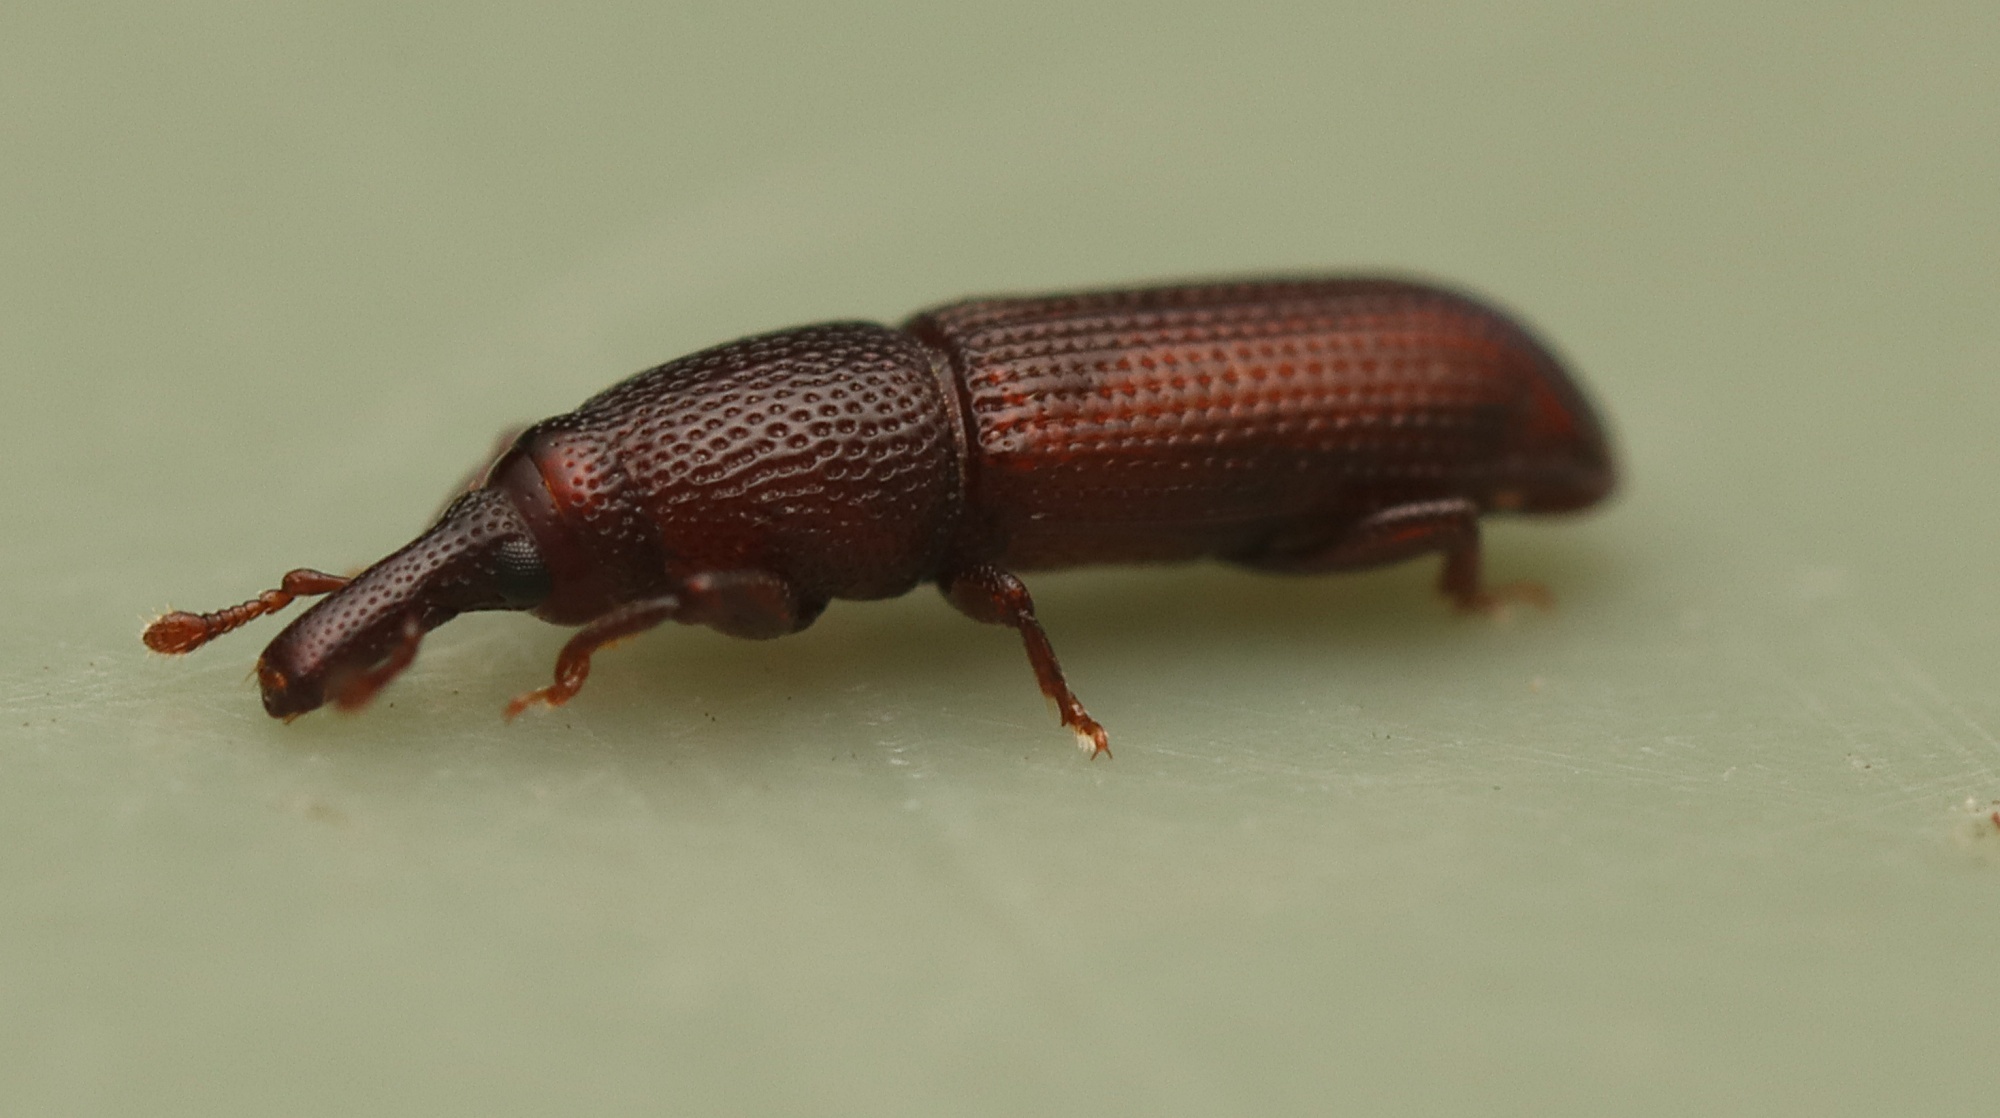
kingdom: Animalia
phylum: Arthropoda
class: Insecta
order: Coleoptera
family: Curculionidae
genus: Pentarthrum
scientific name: Pentarthrum confine
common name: Weevil
